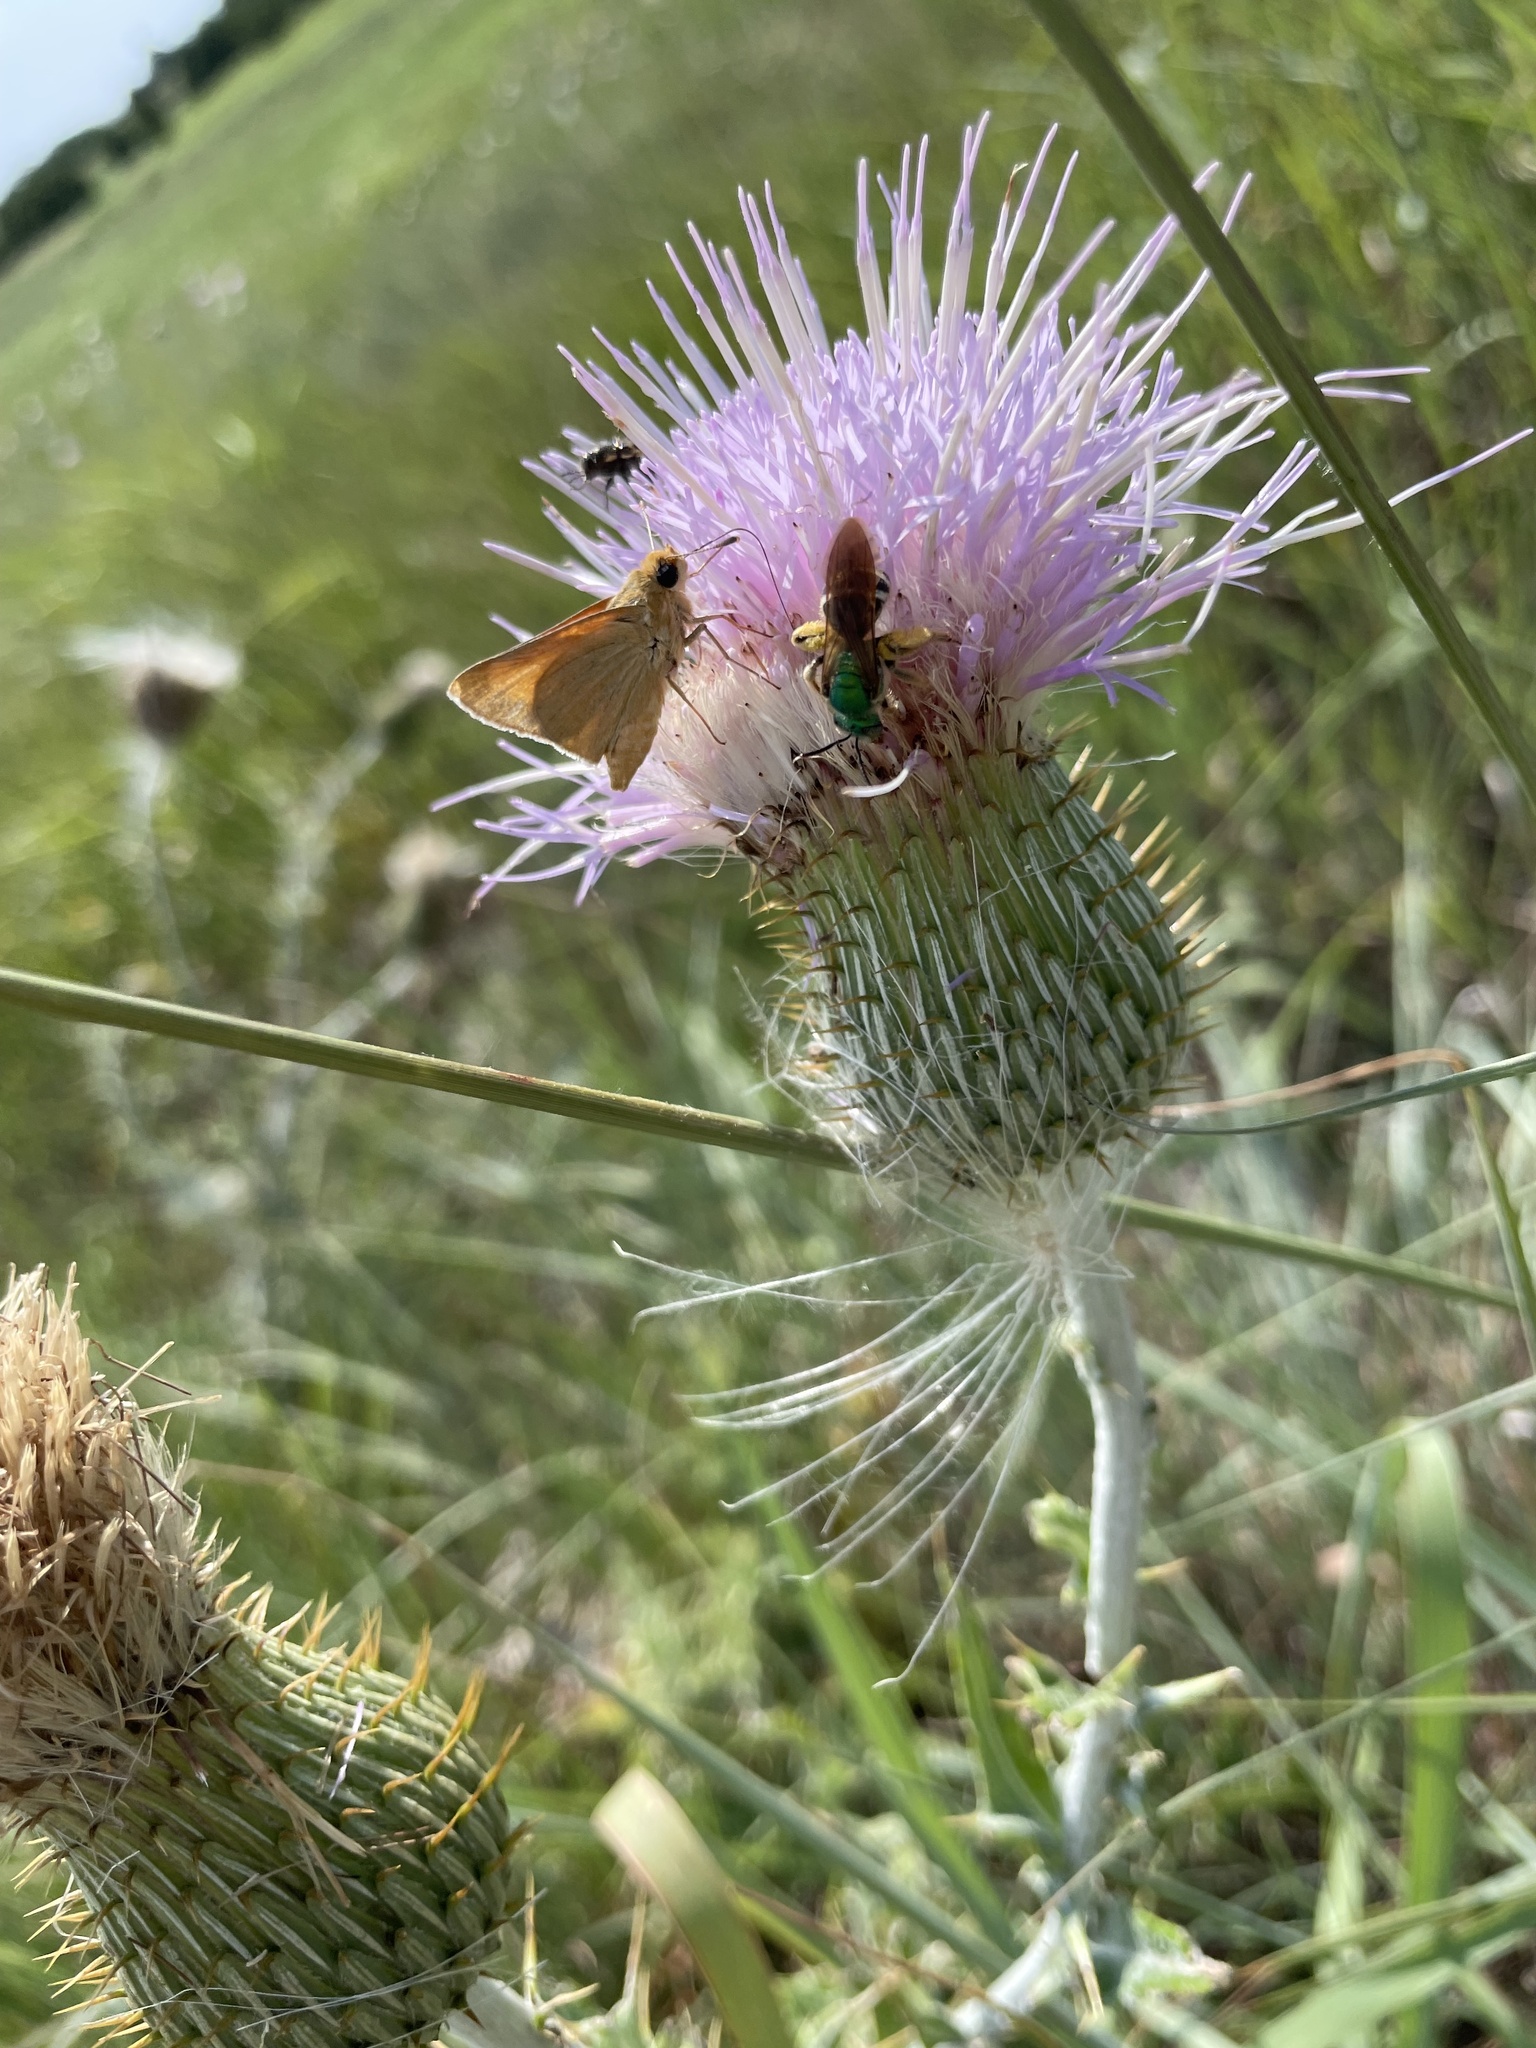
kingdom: Animalia
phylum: Arthropoda
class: Insecta
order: Lepidoptera
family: Hesperiidae
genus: Atrytone
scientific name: Atrytone arogos
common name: Arogos skipper
